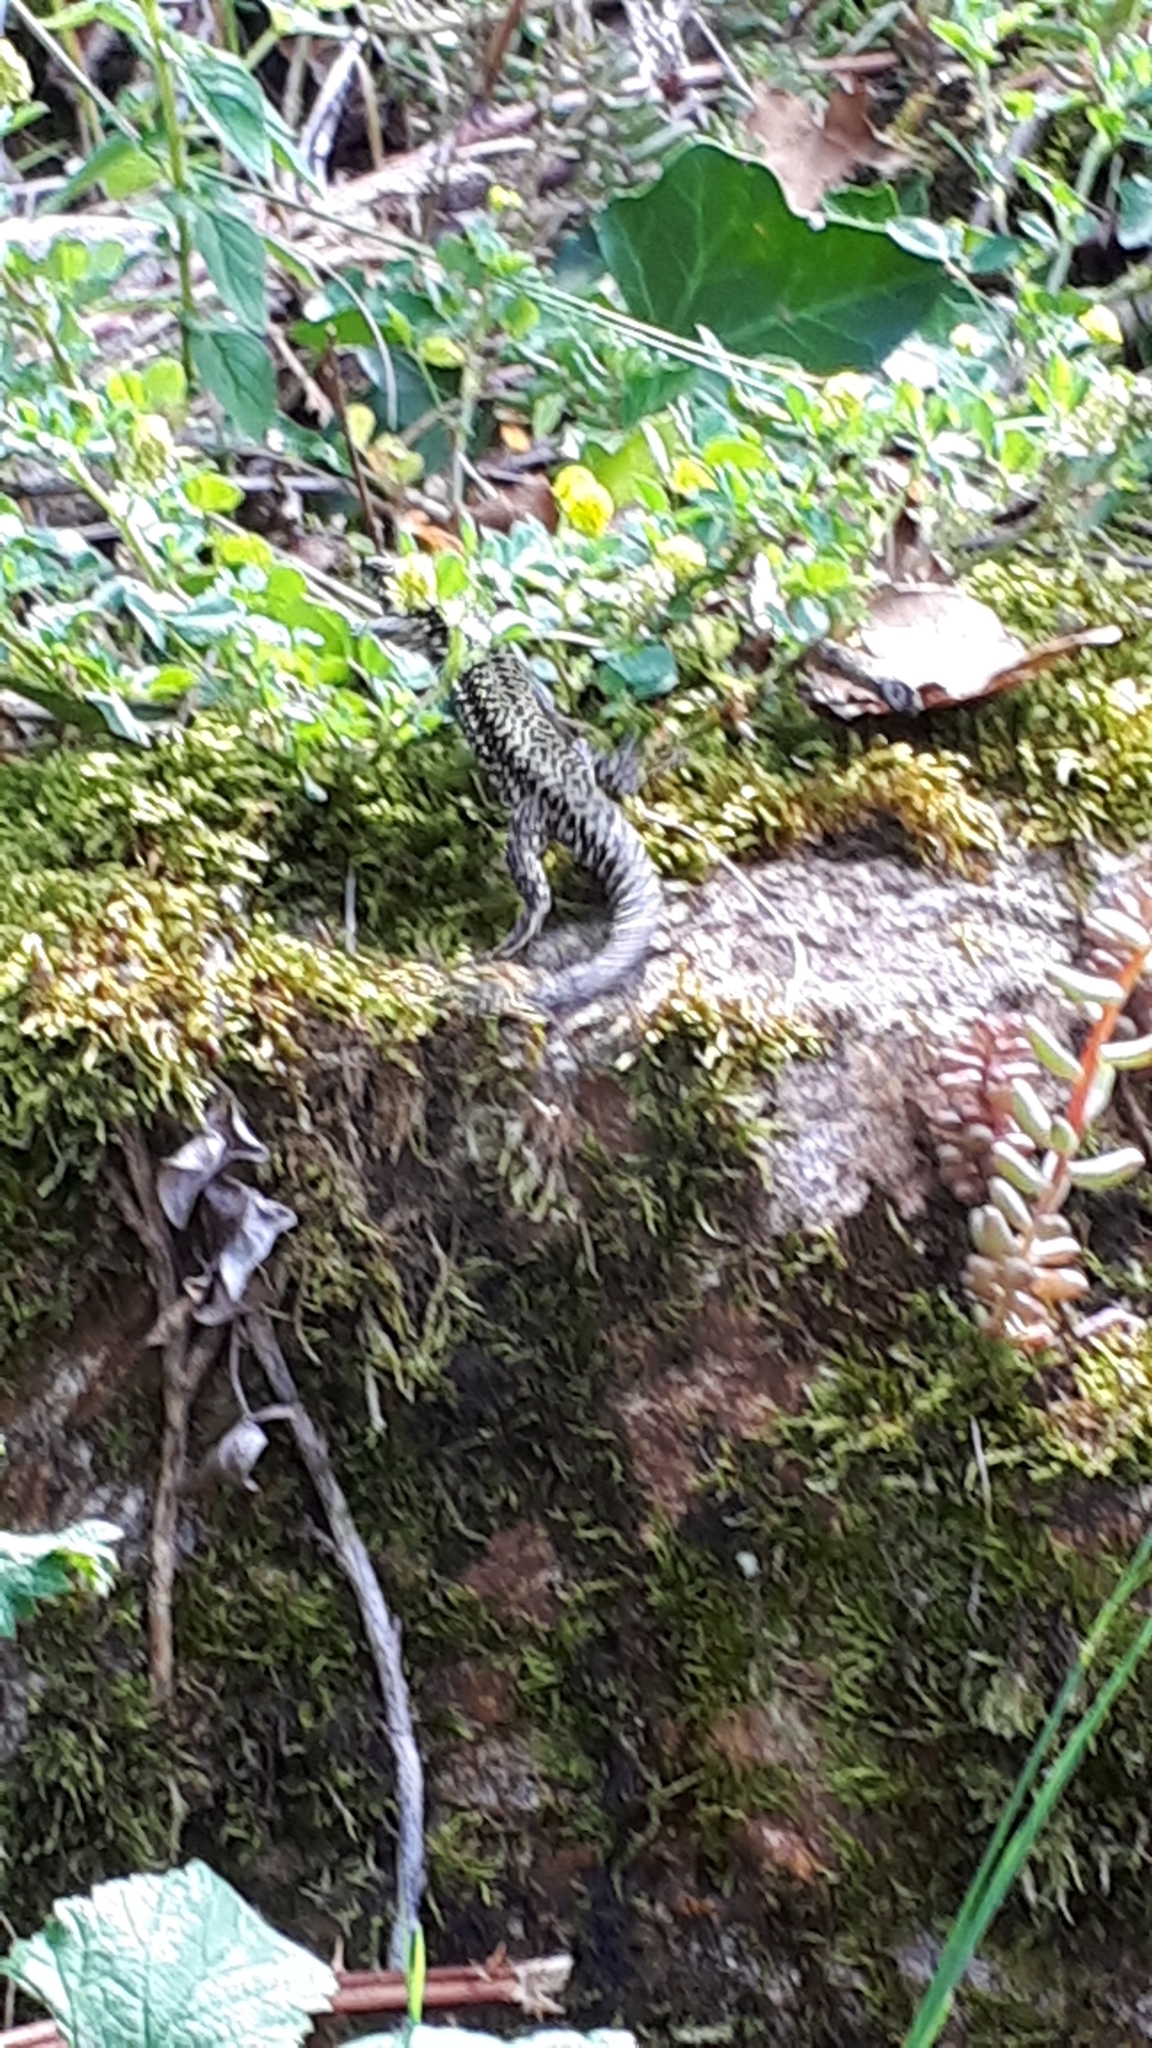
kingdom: Animalia
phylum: Chordata
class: Squamata
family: Lacertidae
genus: Podarcis
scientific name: Podarcis muralis
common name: Common wall lizard
